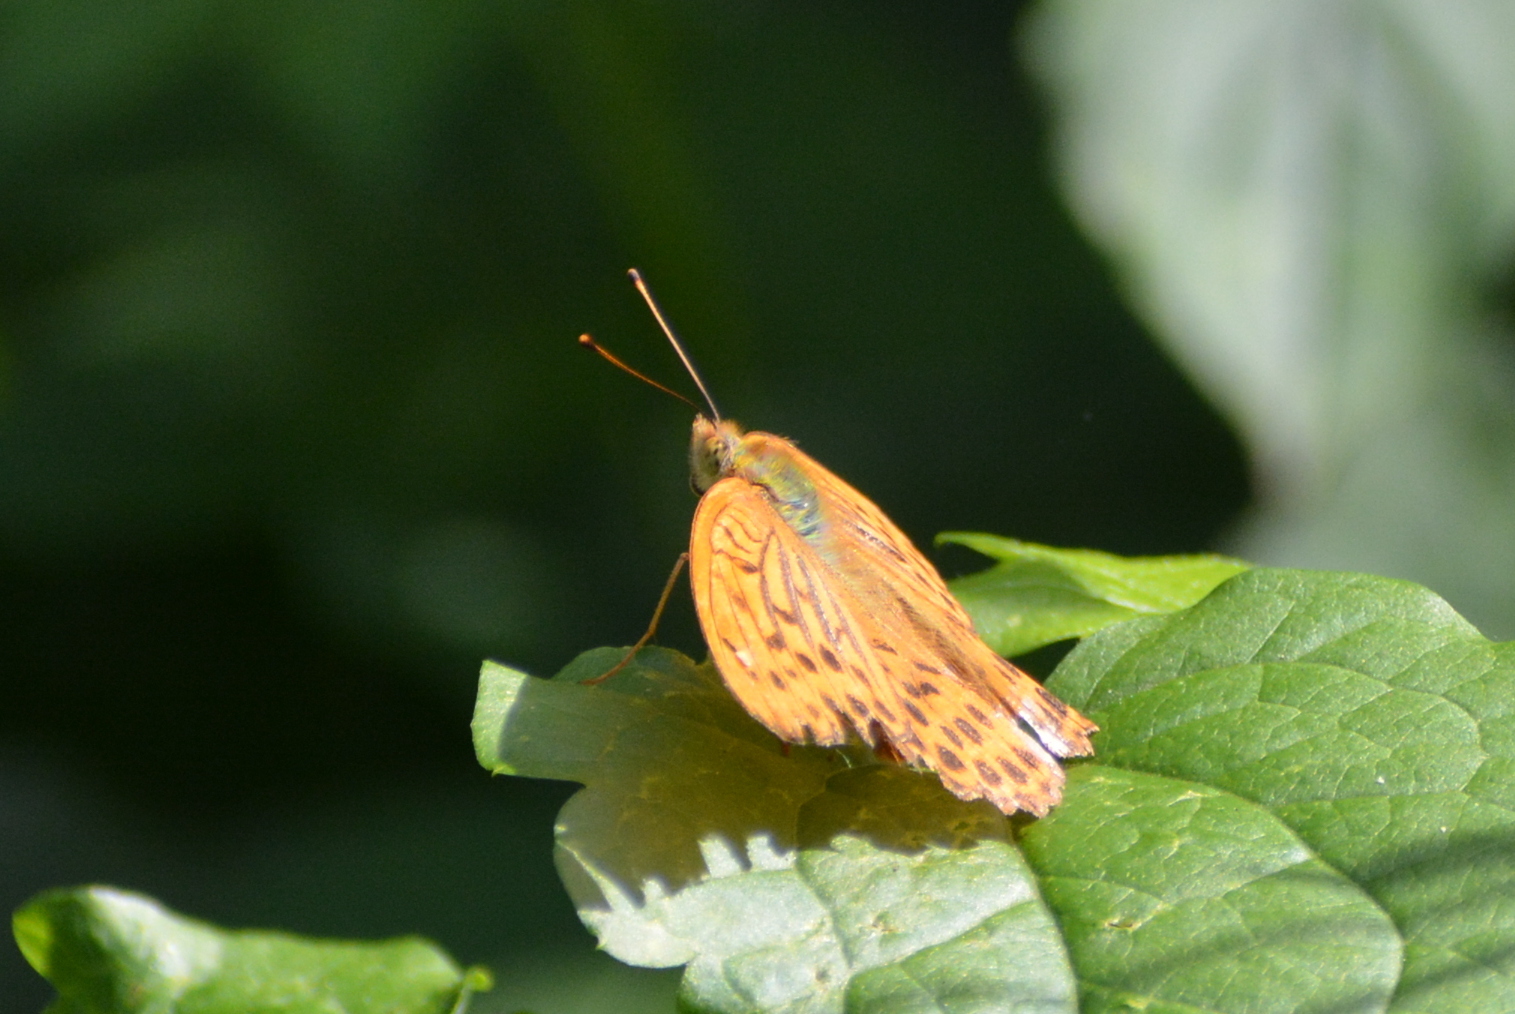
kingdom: Animalia
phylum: Arthropoda
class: Insecta
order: Lepidoptera
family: Nymphalidae
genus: Argynnis
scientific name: Argynnis paphia
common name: Silver-washed fritillary
